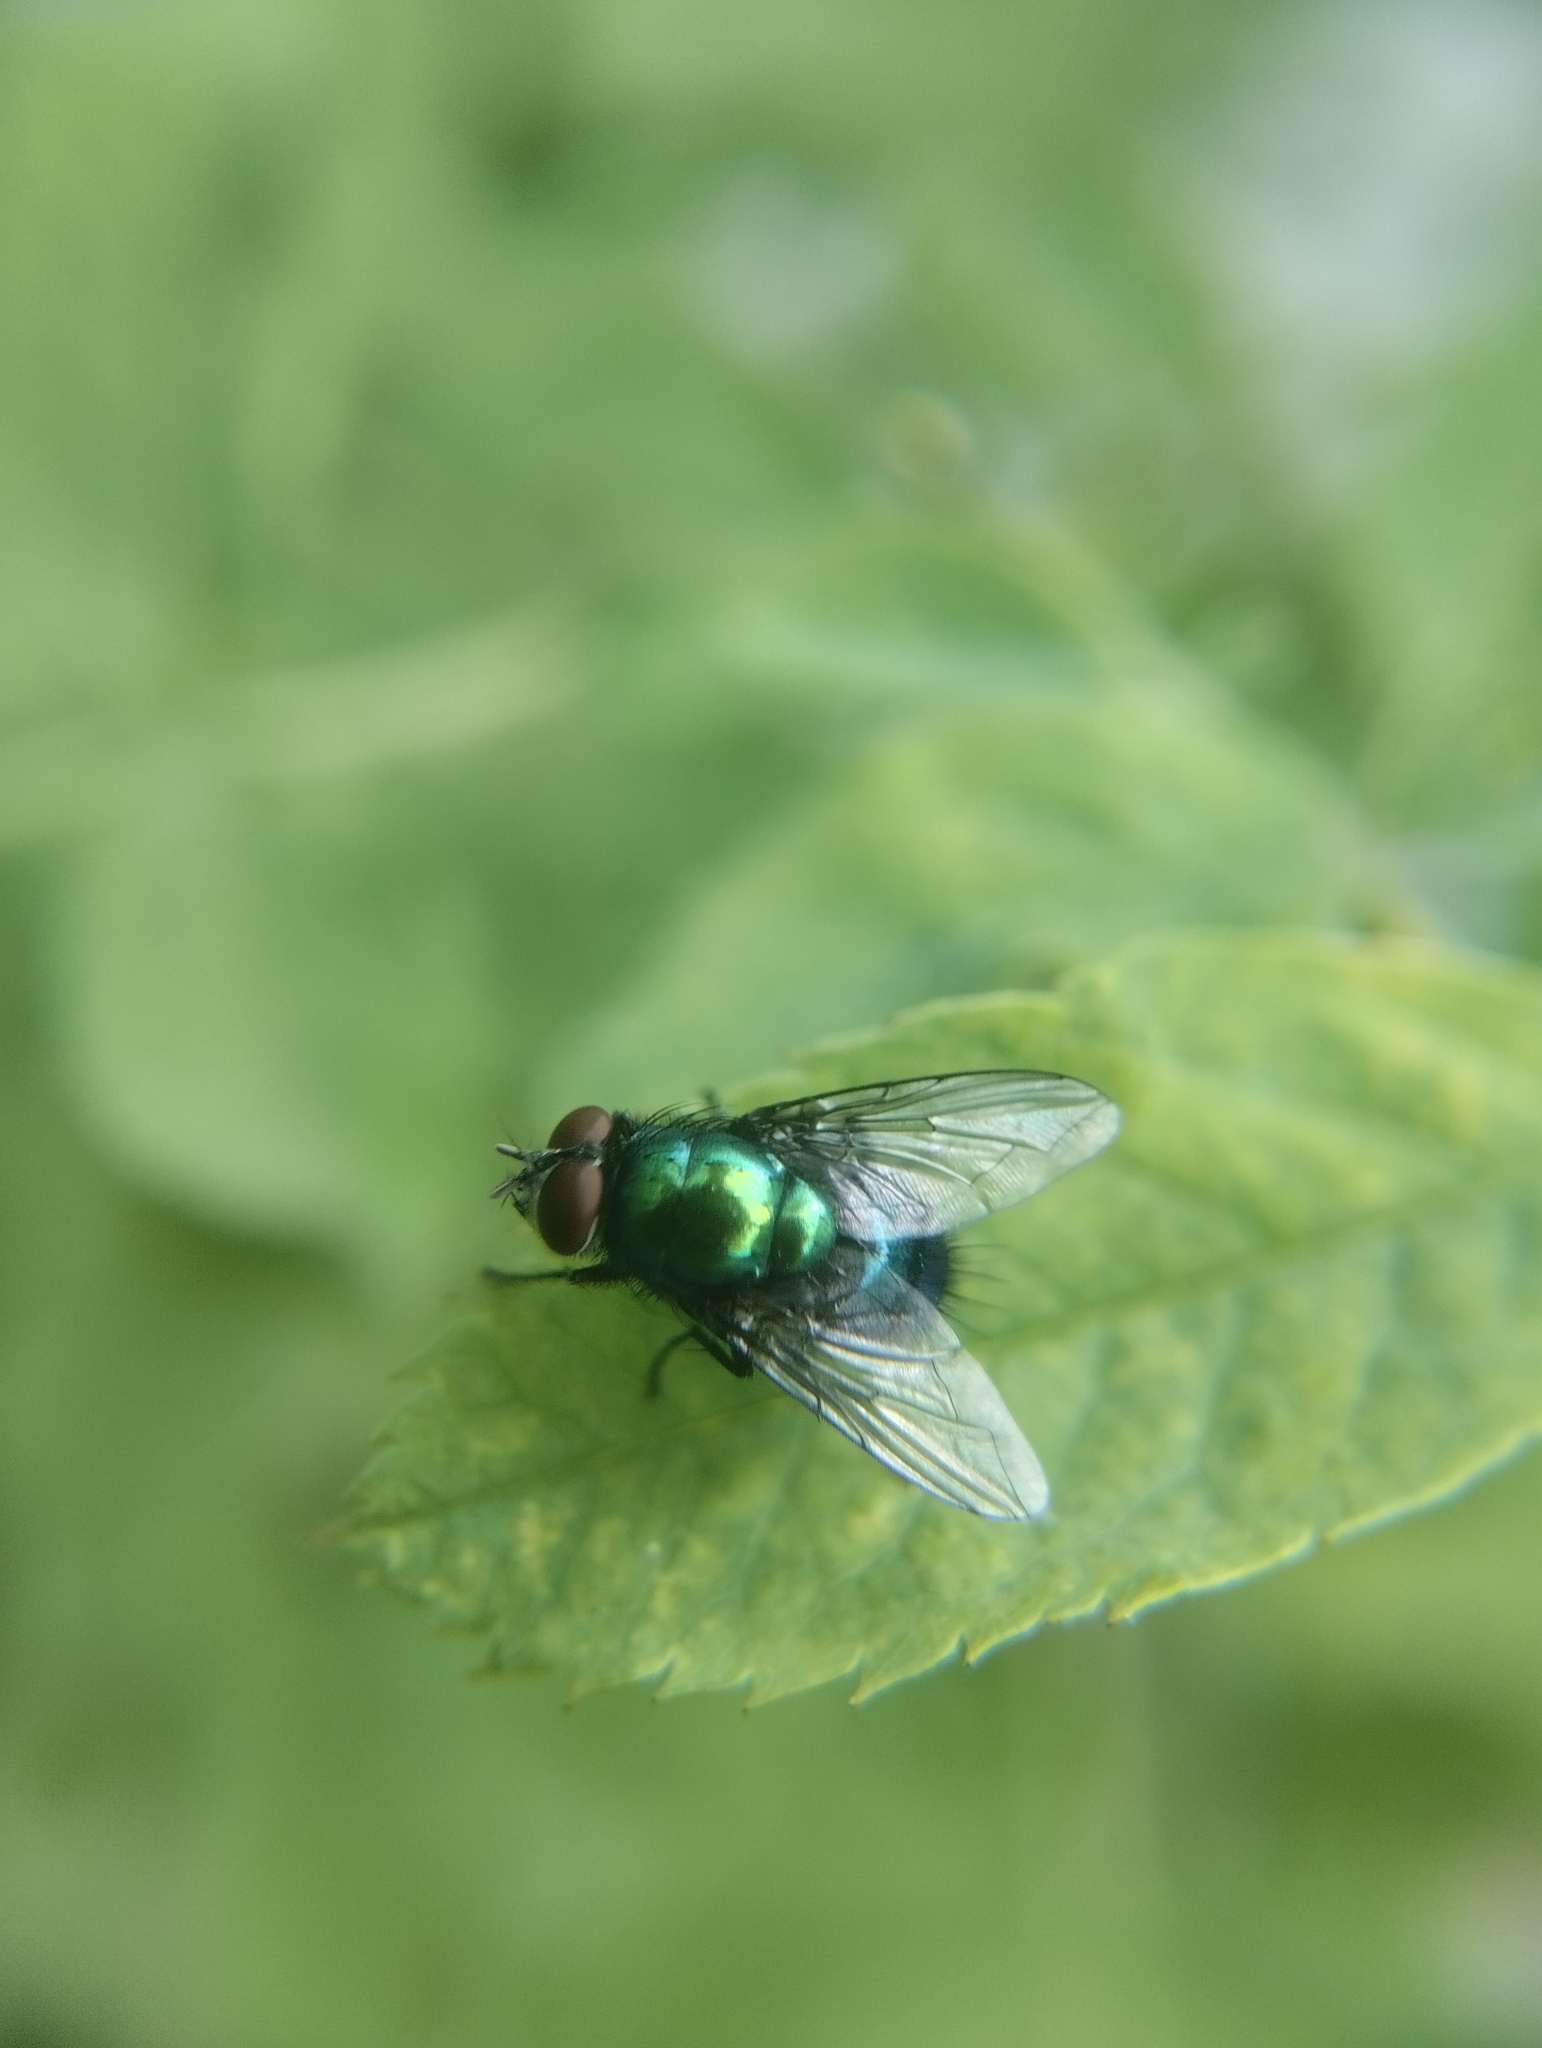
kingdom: Animalia
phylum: Arthropoda
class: Insecta
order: Diptera
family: Calliphoridae
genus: Lucilia
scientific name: Lucilia sericata
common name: Blow fly
